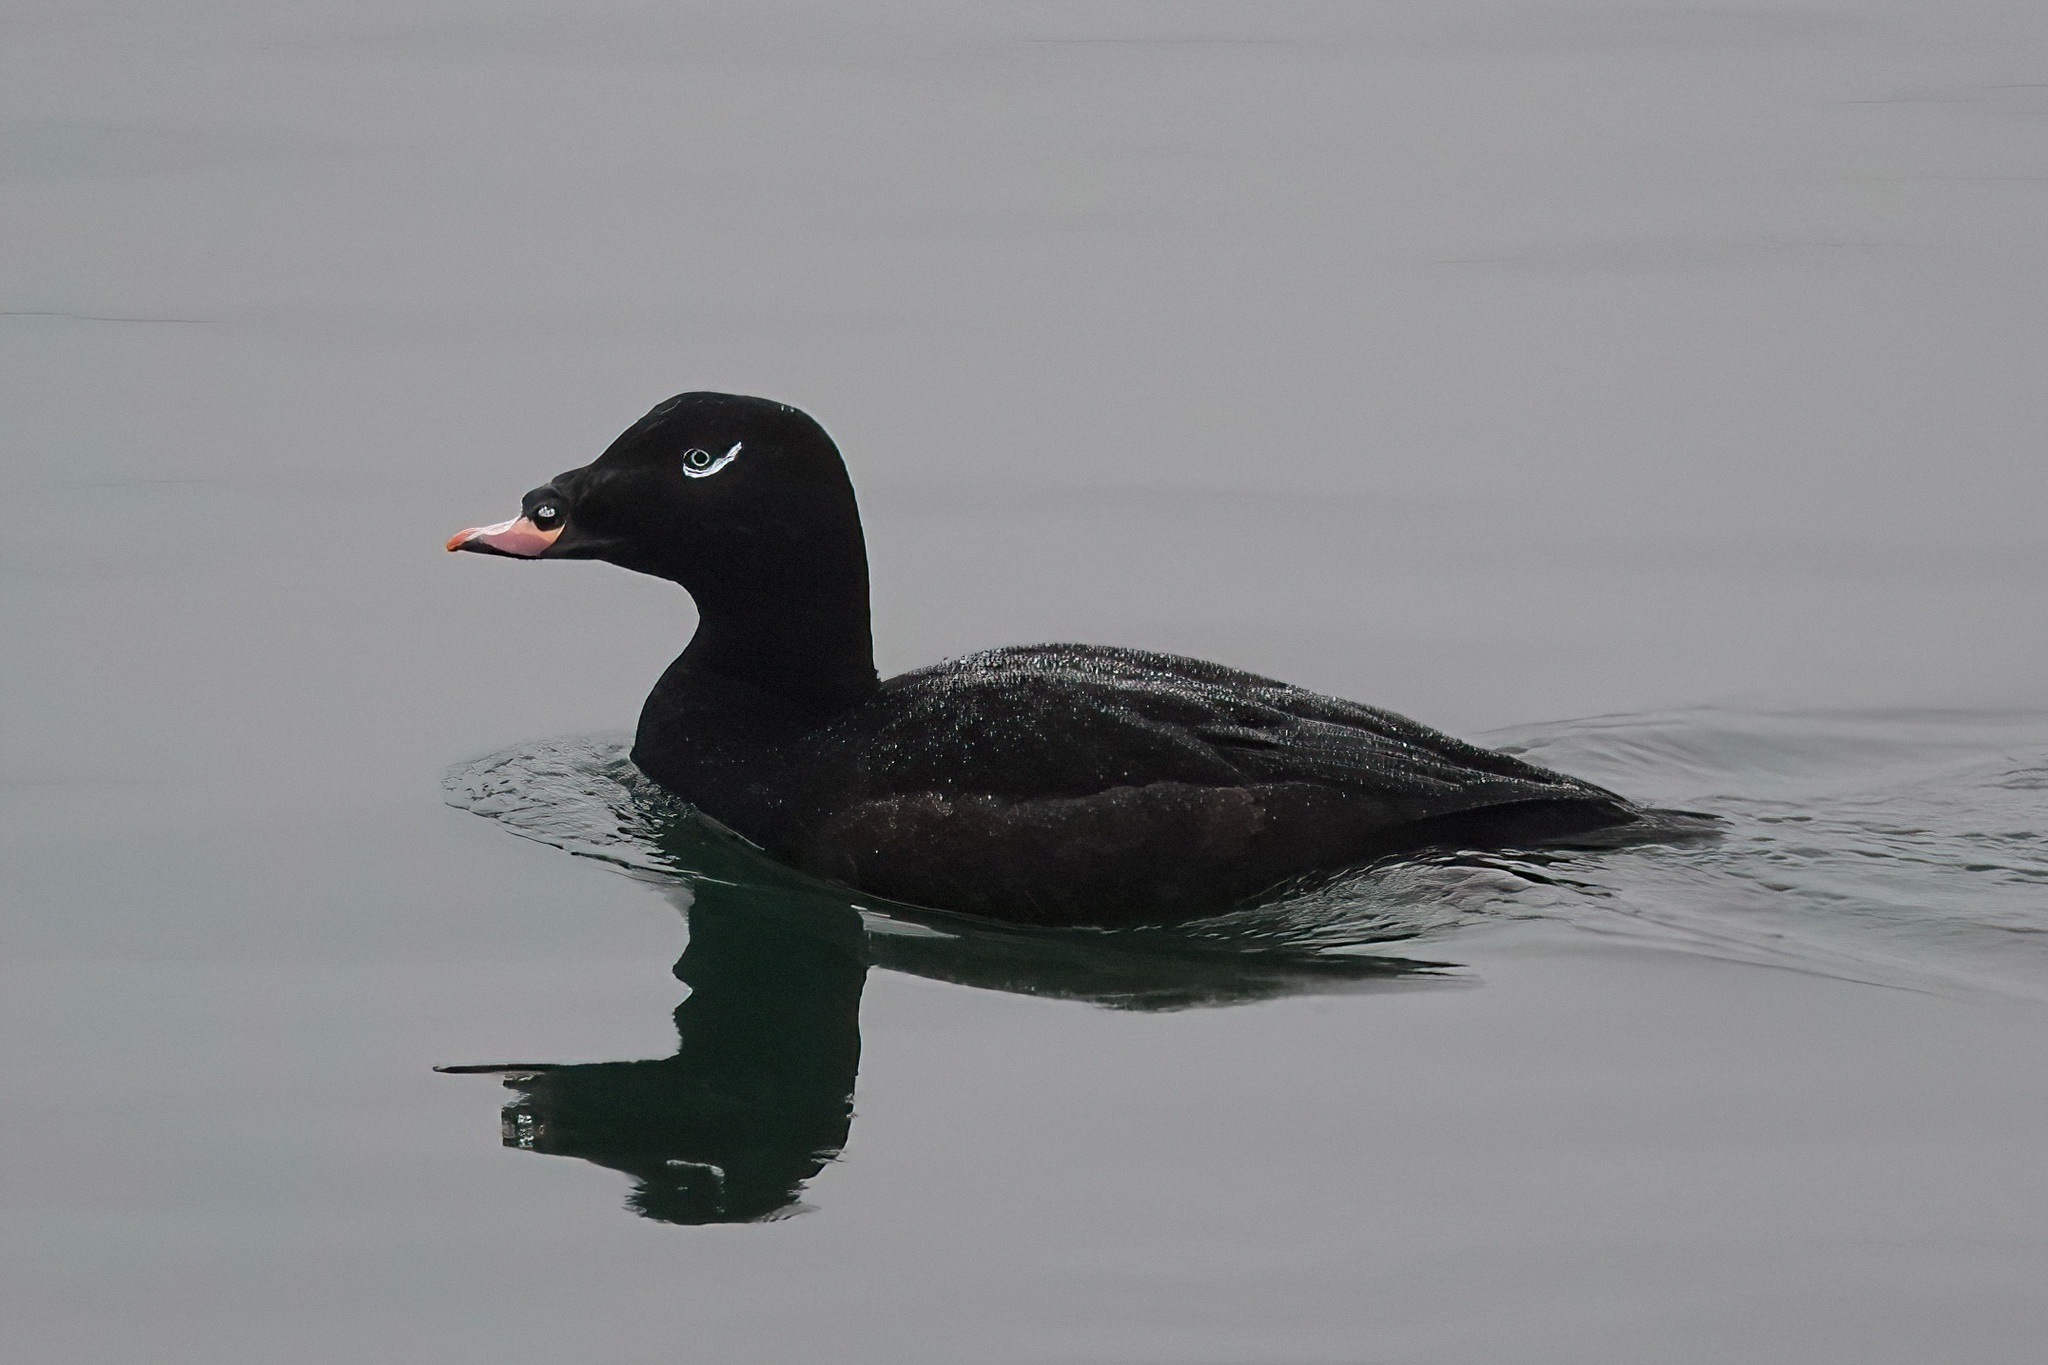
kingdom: Animalia
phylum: Chordata
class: Aves
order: Anseriformes
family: Anatidae
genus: Melanitta
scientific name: Melanitta deglandi
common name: White-winged scoter
